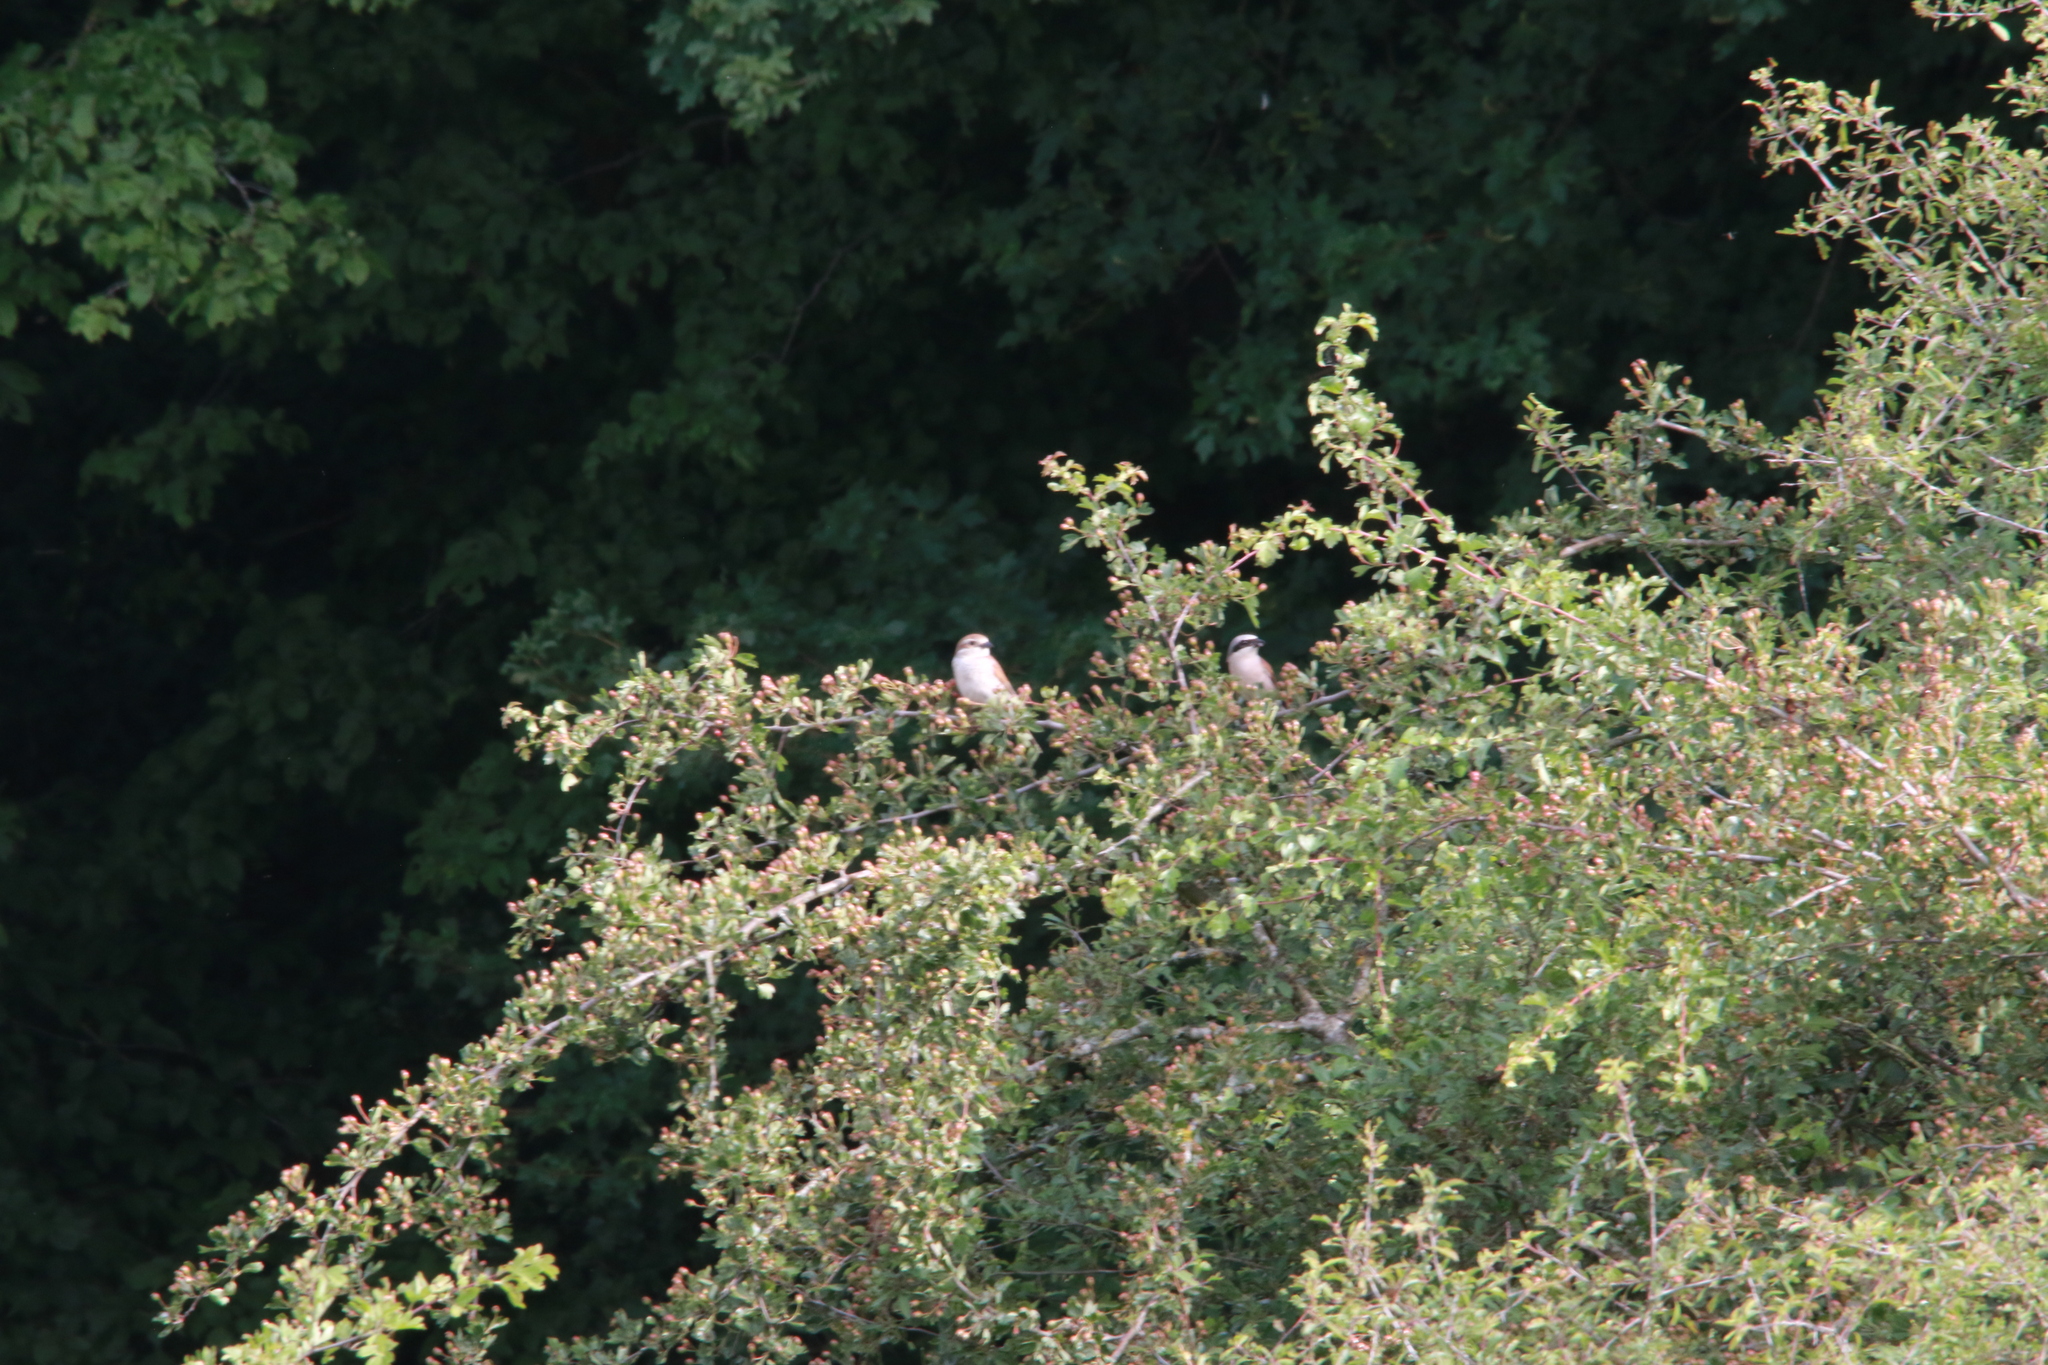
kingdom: Animalia
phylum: Chordata
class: Aves
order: Passeriformes
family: Laniidae
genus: Lanius
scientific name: Lanius collurio
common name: Red-backed shrike
